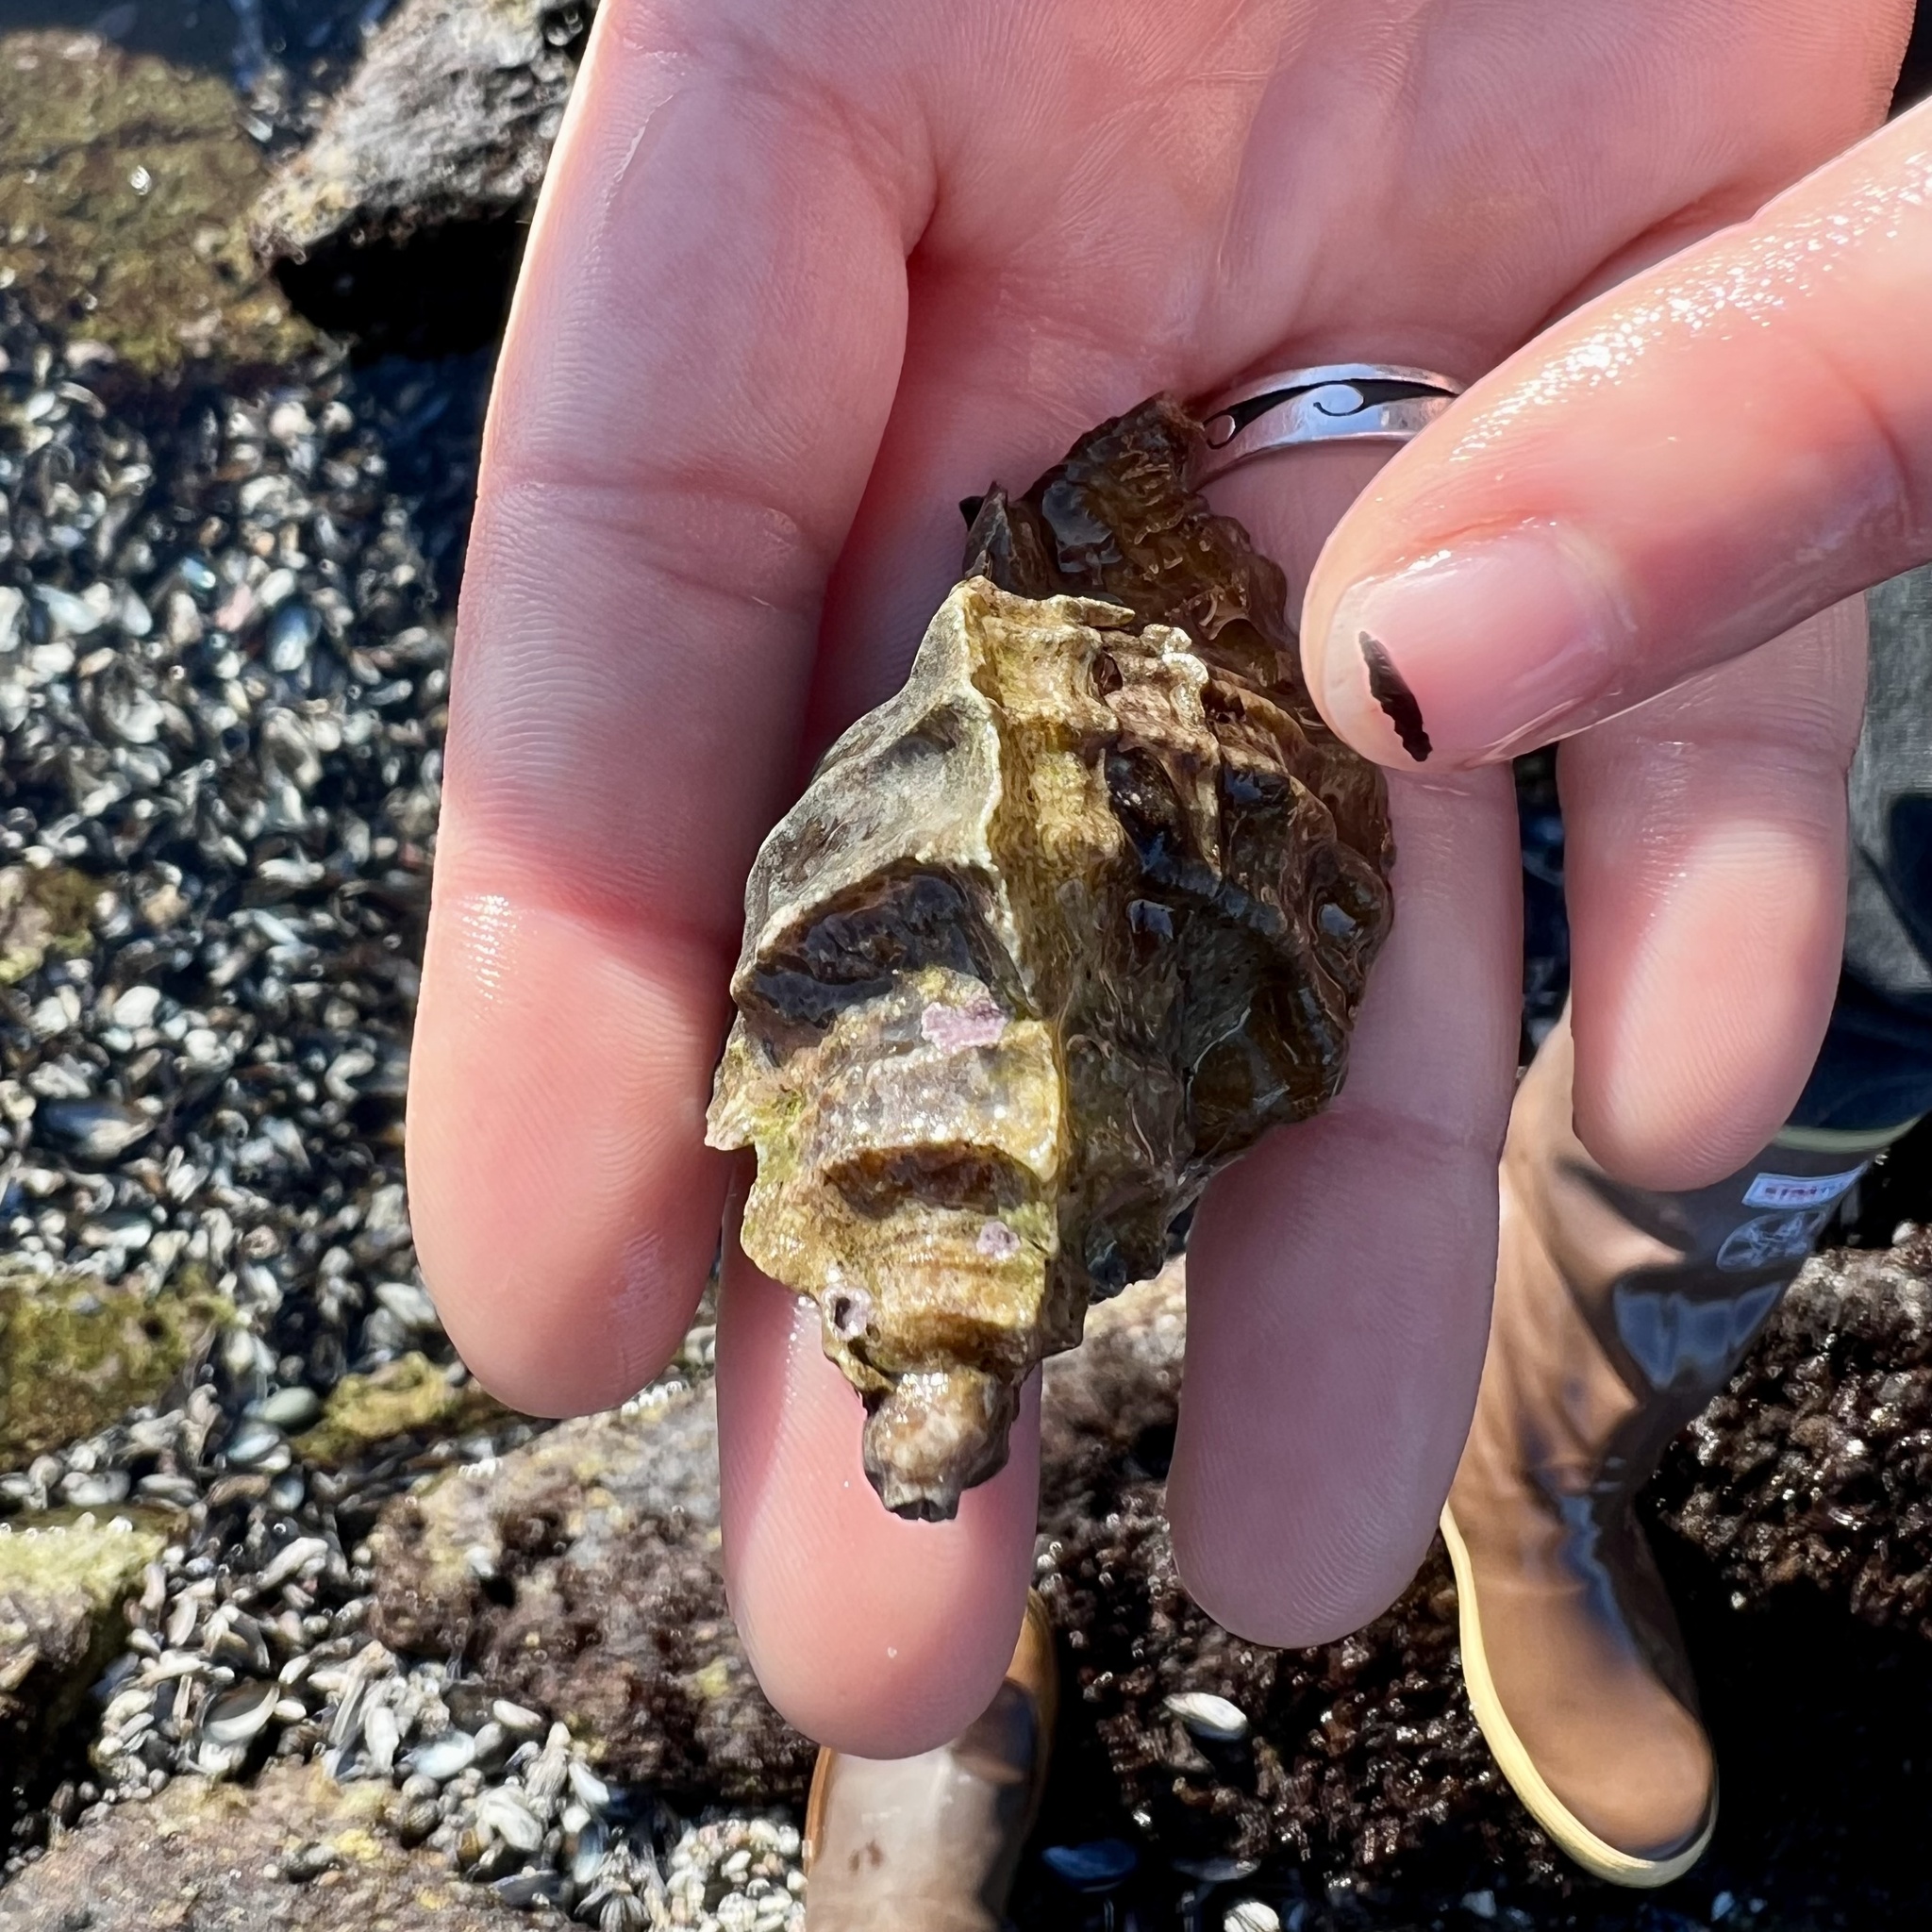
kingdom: Animalia
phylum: Mollusca
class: Gastropoda
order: Neogastropoda
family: Muricidae
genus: Ceratostoma
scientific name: Ceratostoma foliatum
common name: Foliate thorn purpura
